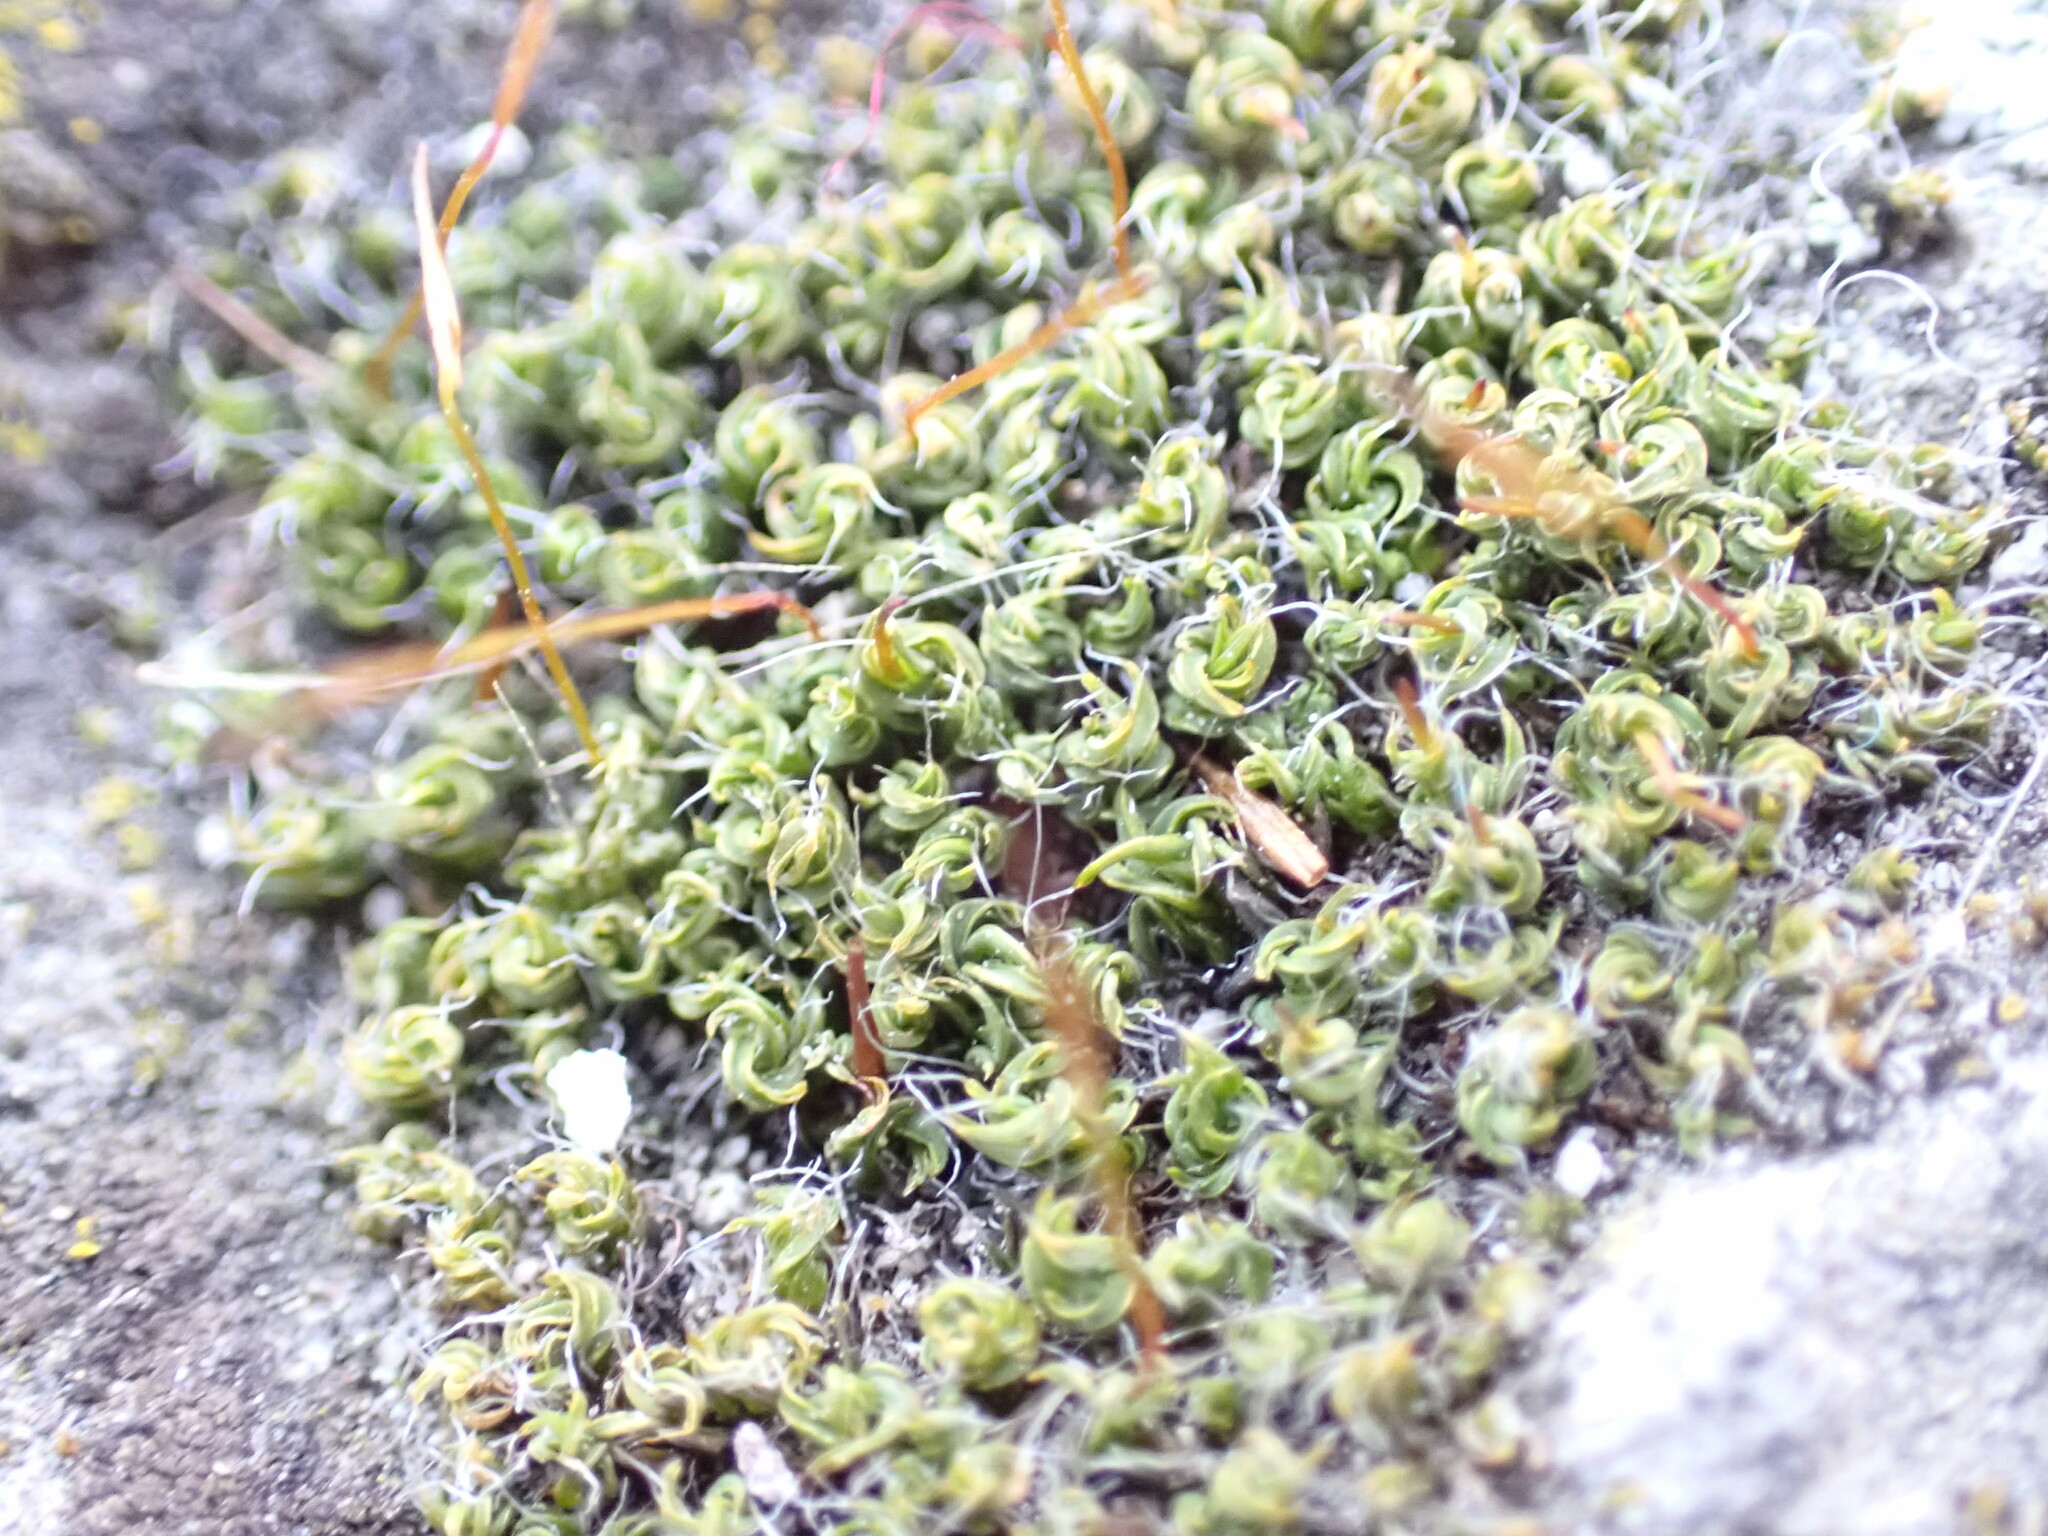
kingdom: Plantae
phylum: Bryophyta
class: Bryopsida
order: Pottiales
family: Pottiaceae
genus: Tortula
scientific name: Tortula muralis
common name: Wall screw-moss
